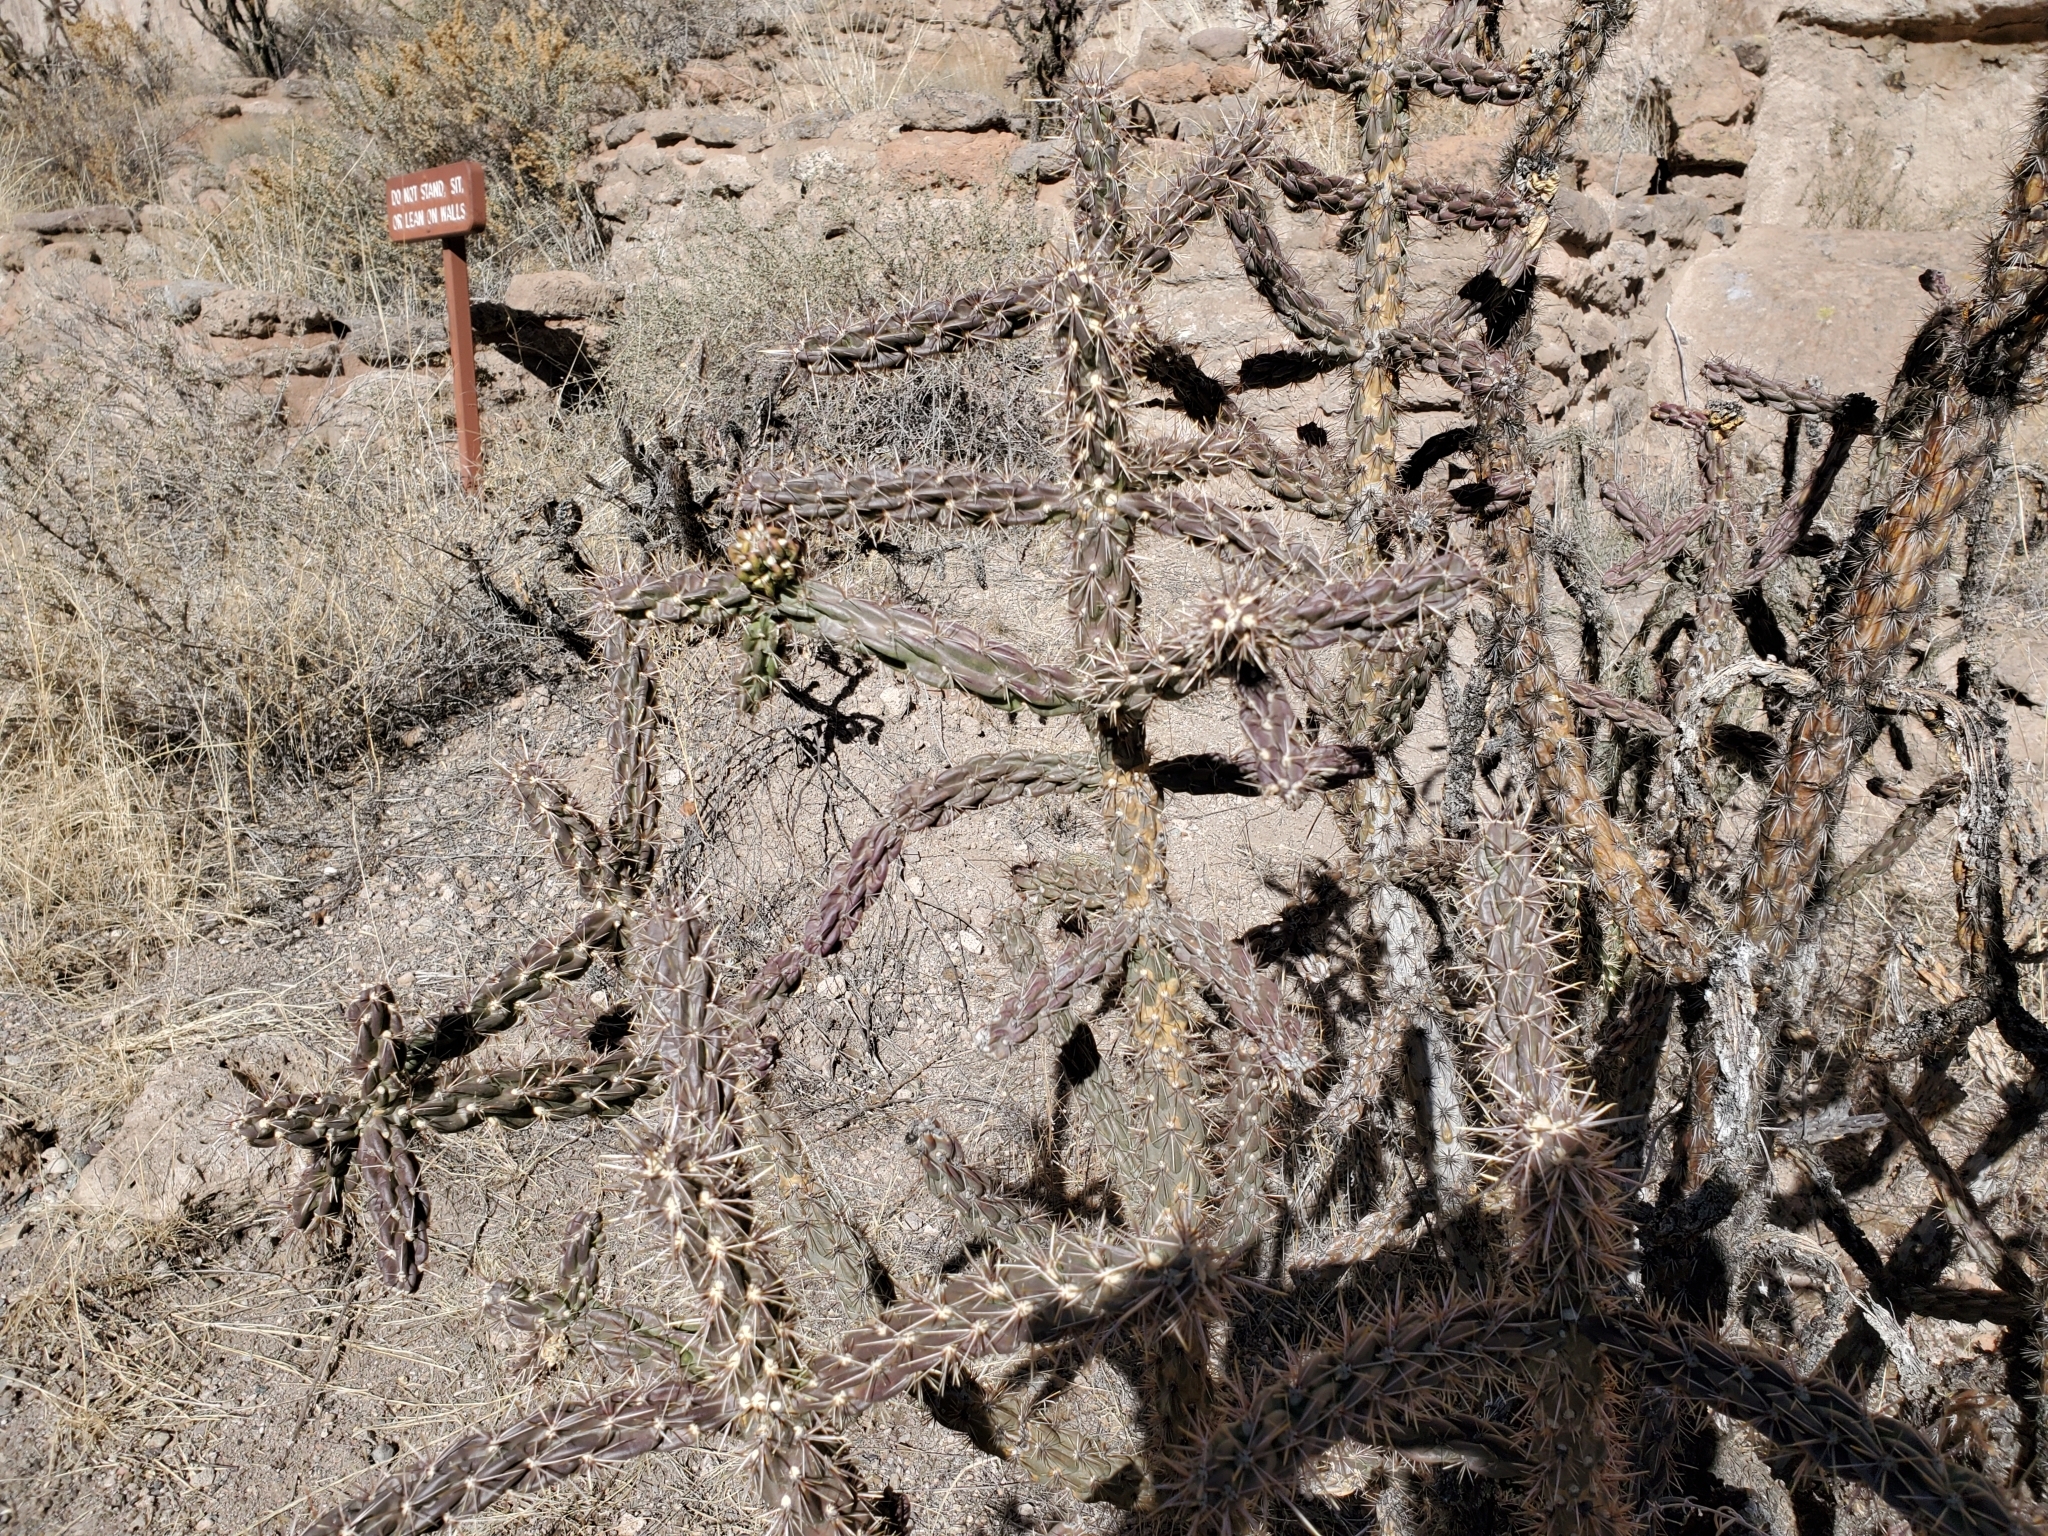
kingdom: Plantae
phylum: Tracheophyta
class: Magnoliopsida
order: Caryophyllales
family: Cactaceae
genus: Cylindropuntia
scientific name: Cylindropuntia imbricata
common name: Candelabrum cactus
